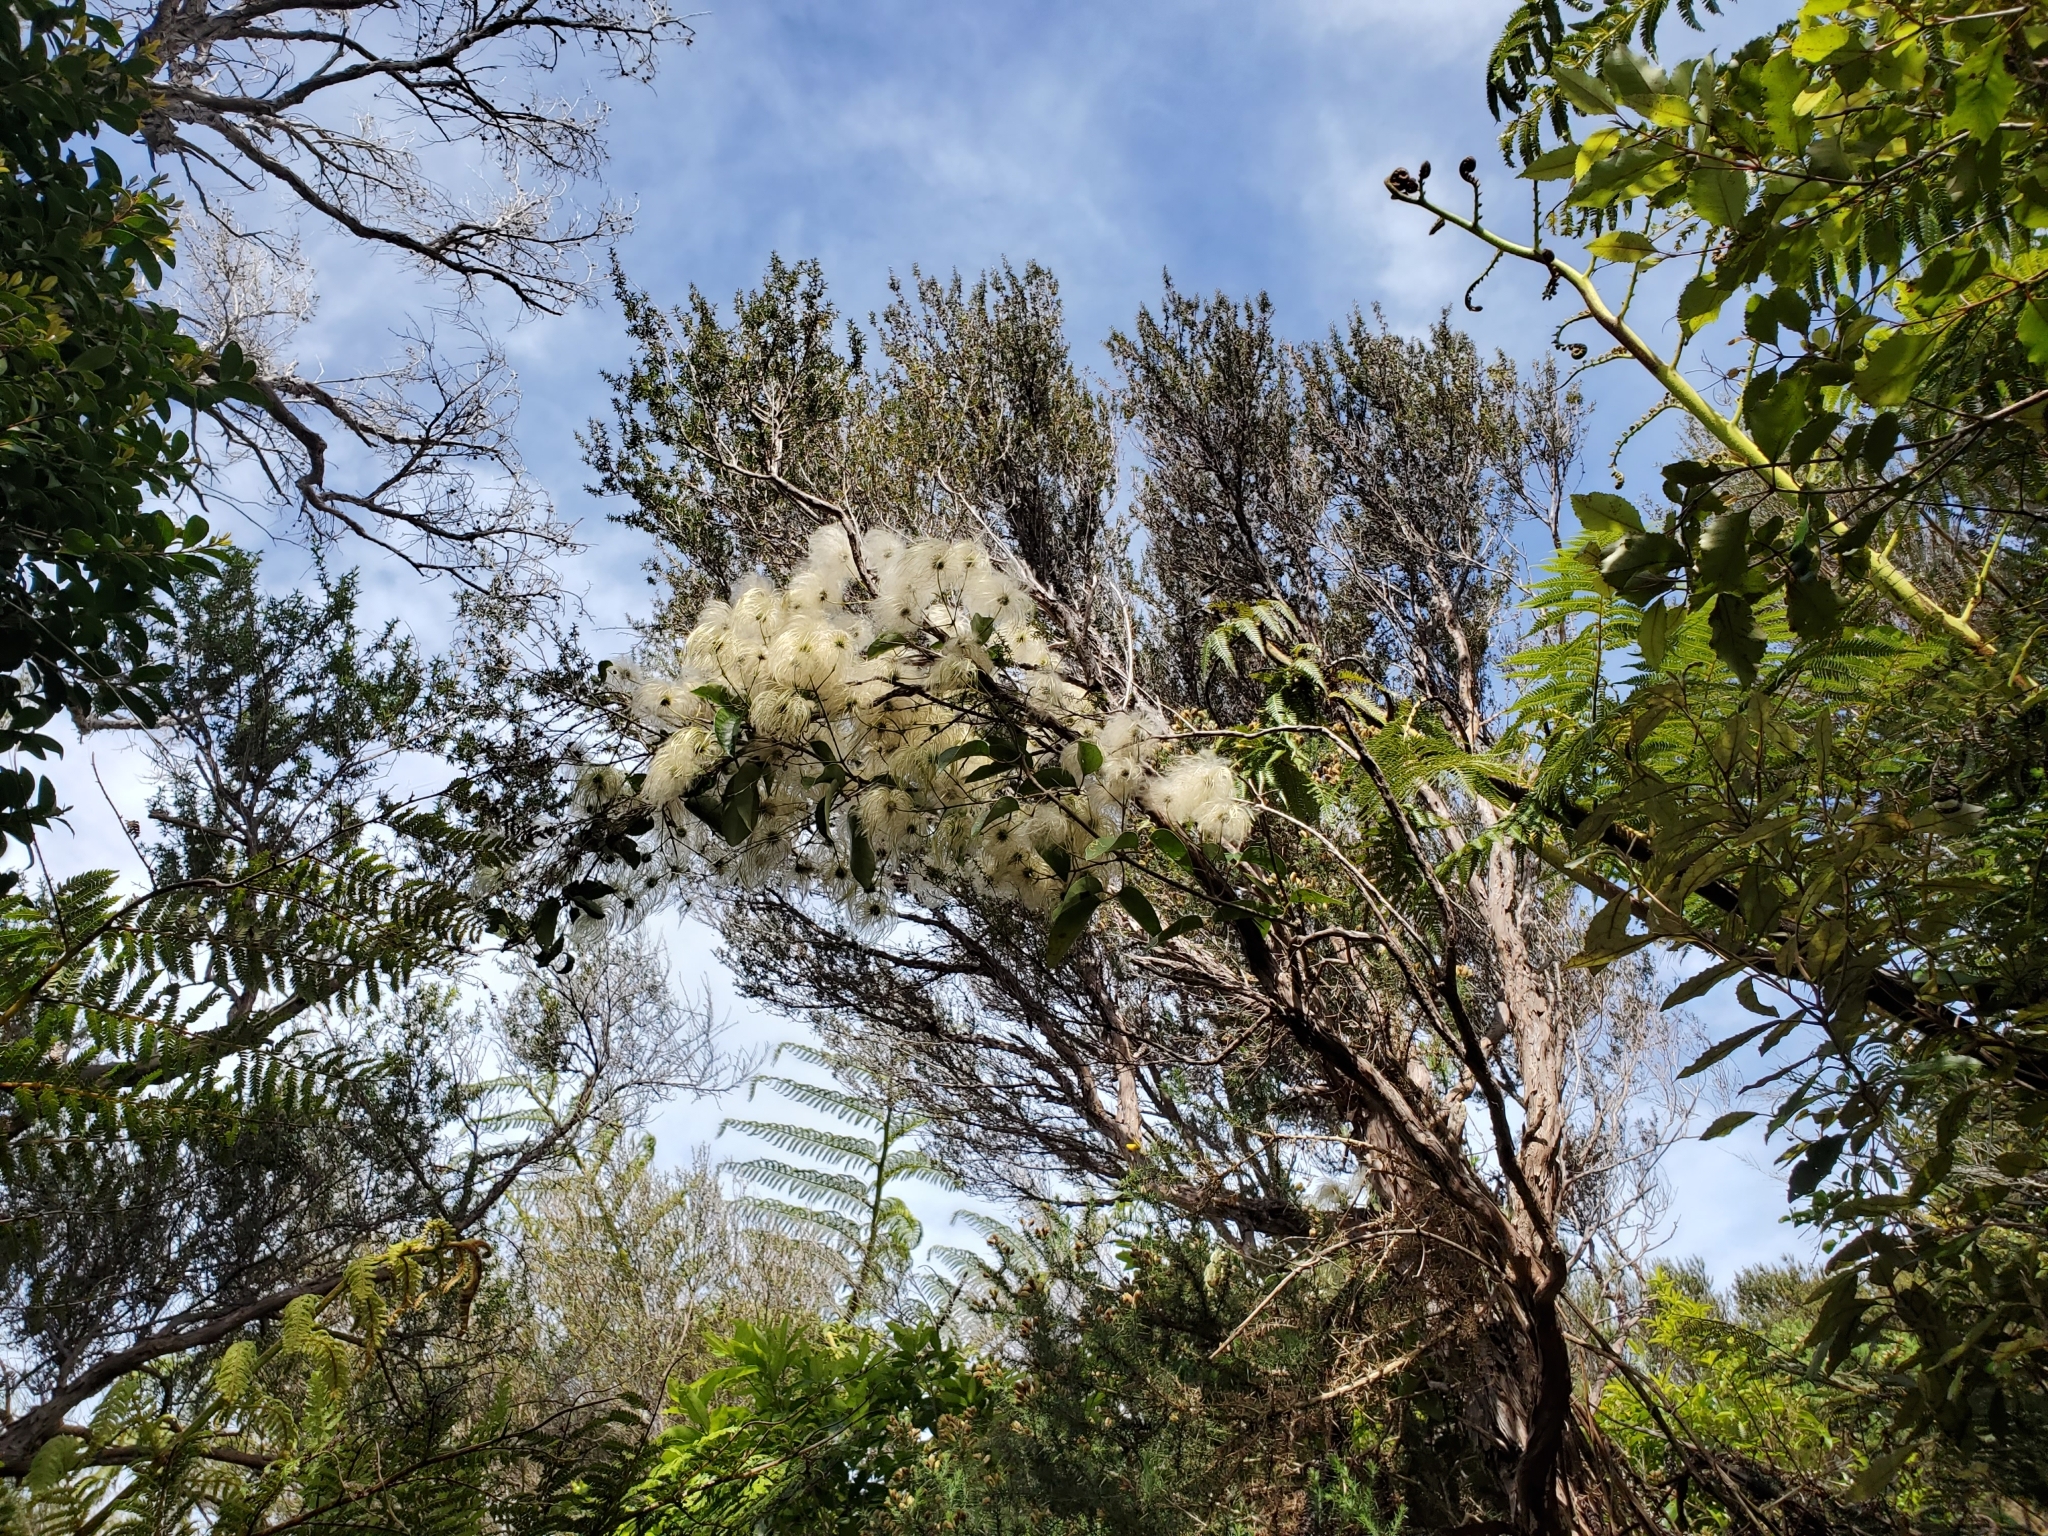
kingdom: Plantae
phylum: Tracheophyta
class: Magnoliopsida
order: Ranunculales
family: Ranunculaceae
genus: Clematis
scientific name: Clematis paniculata
